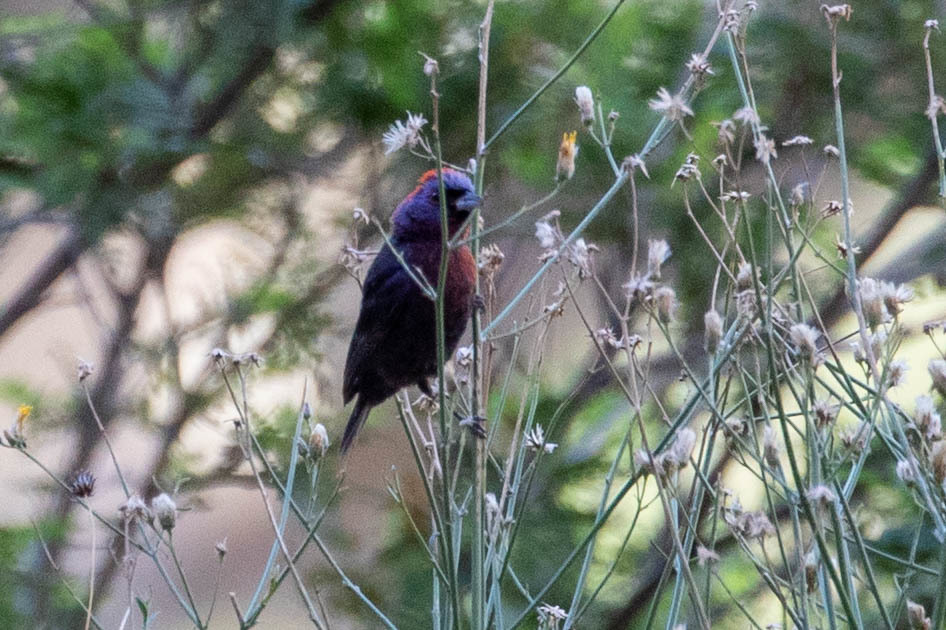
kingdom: Animalia
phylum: Chordata
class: Aves
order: Passeriformes
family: Cardinalidae
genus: Passerina
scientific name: Passerina versicolor
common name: Varied bunting
